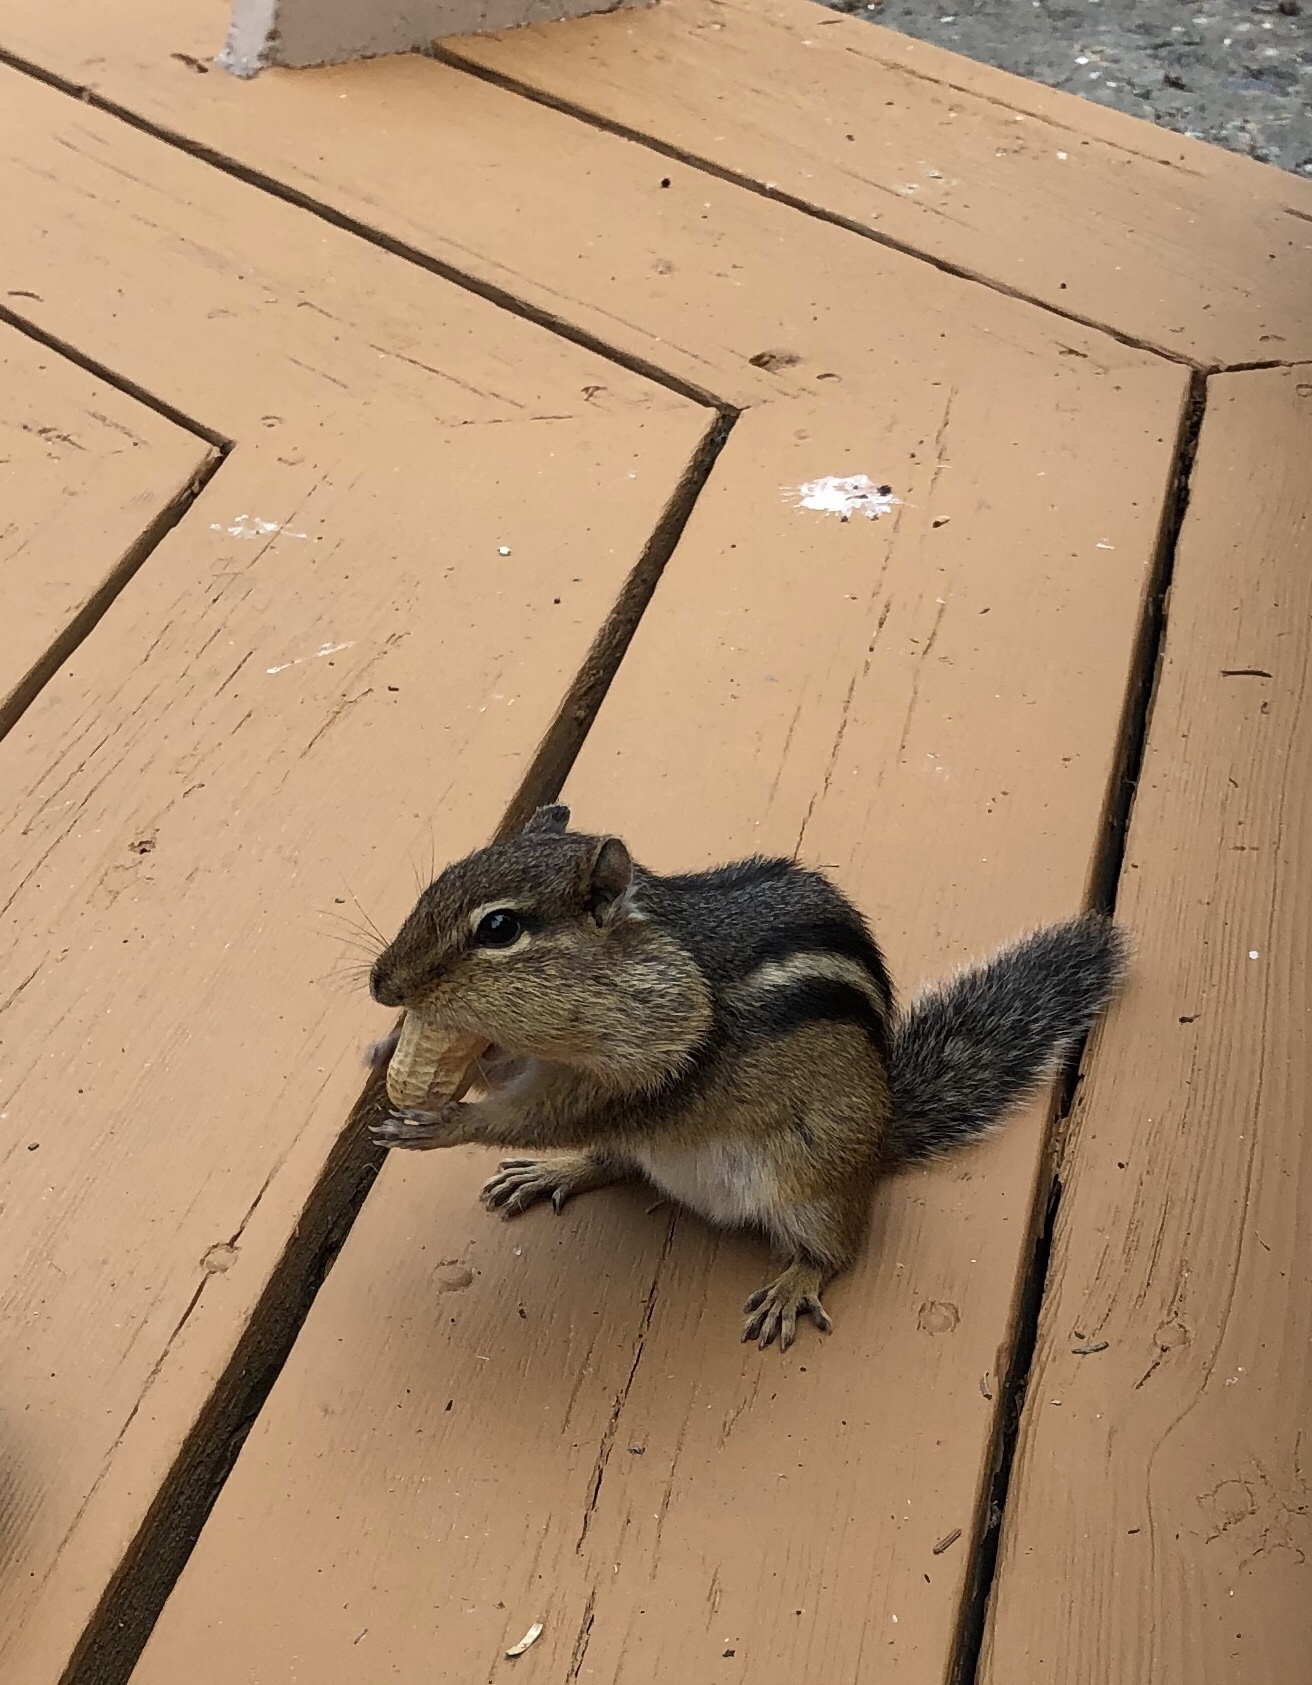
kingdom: Animalia
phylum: Chordata
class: Mammalia
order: Rodentia
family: Sciuridae
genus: Tamias
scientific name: Tamias striatus
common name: Eastern chipmunk
